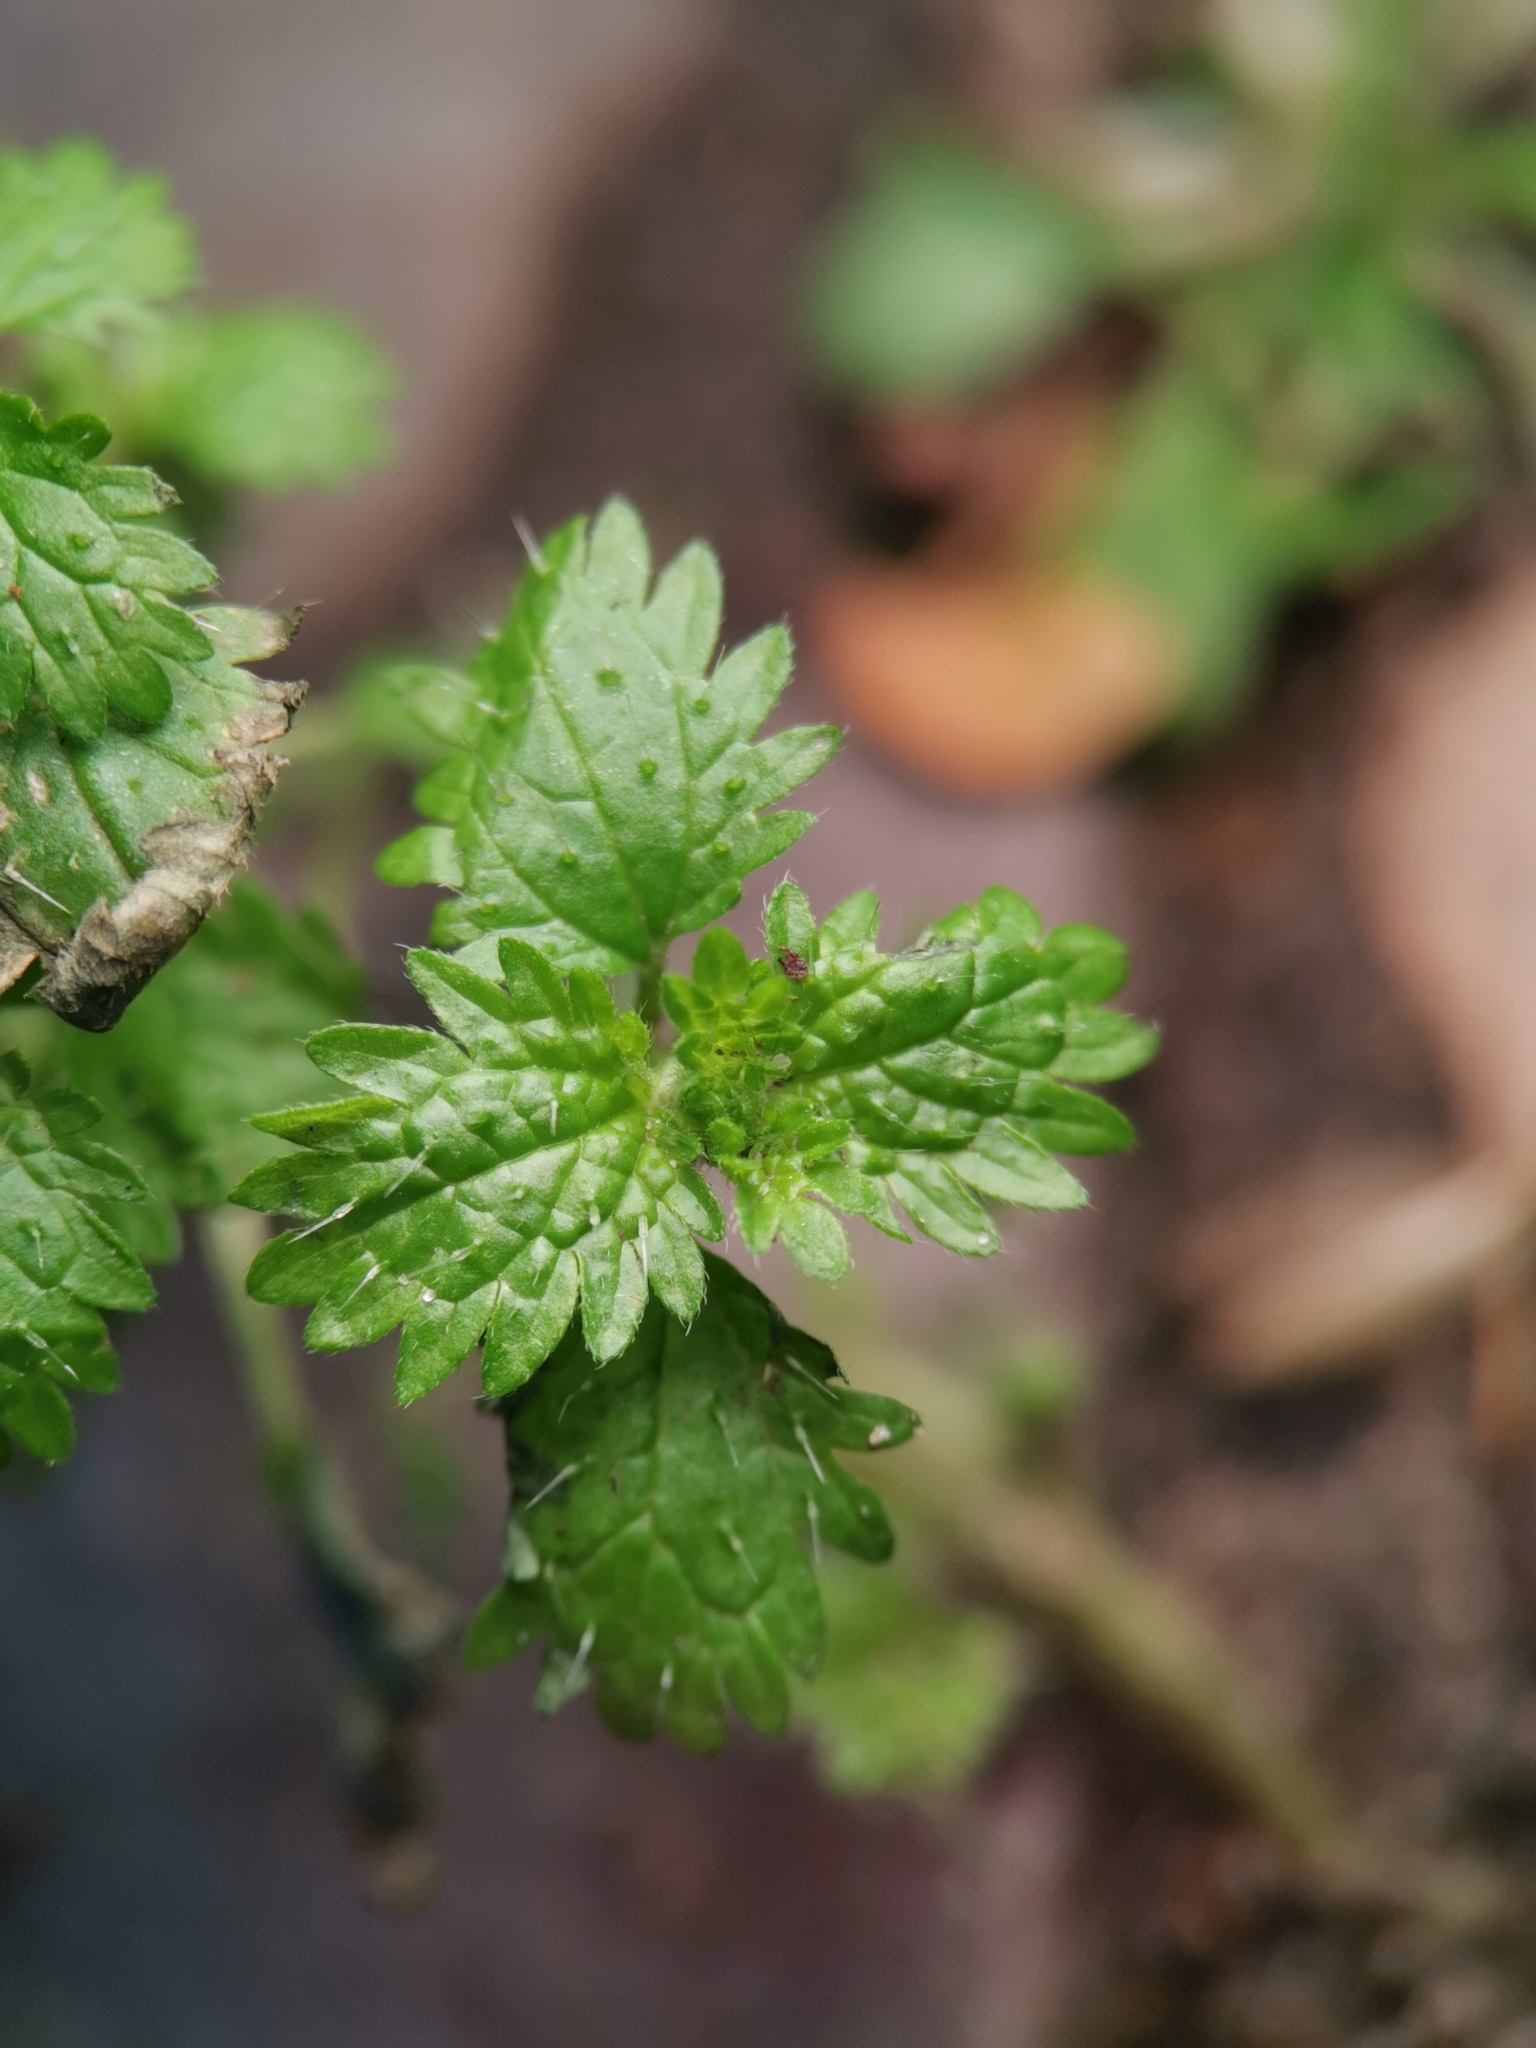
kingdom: Plantae
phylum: Tracheophyta
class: Magnoliopsida
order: Rosales
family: Urticaceae
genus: Urtica
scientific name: Urtica urens
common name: Dwarf nettle
